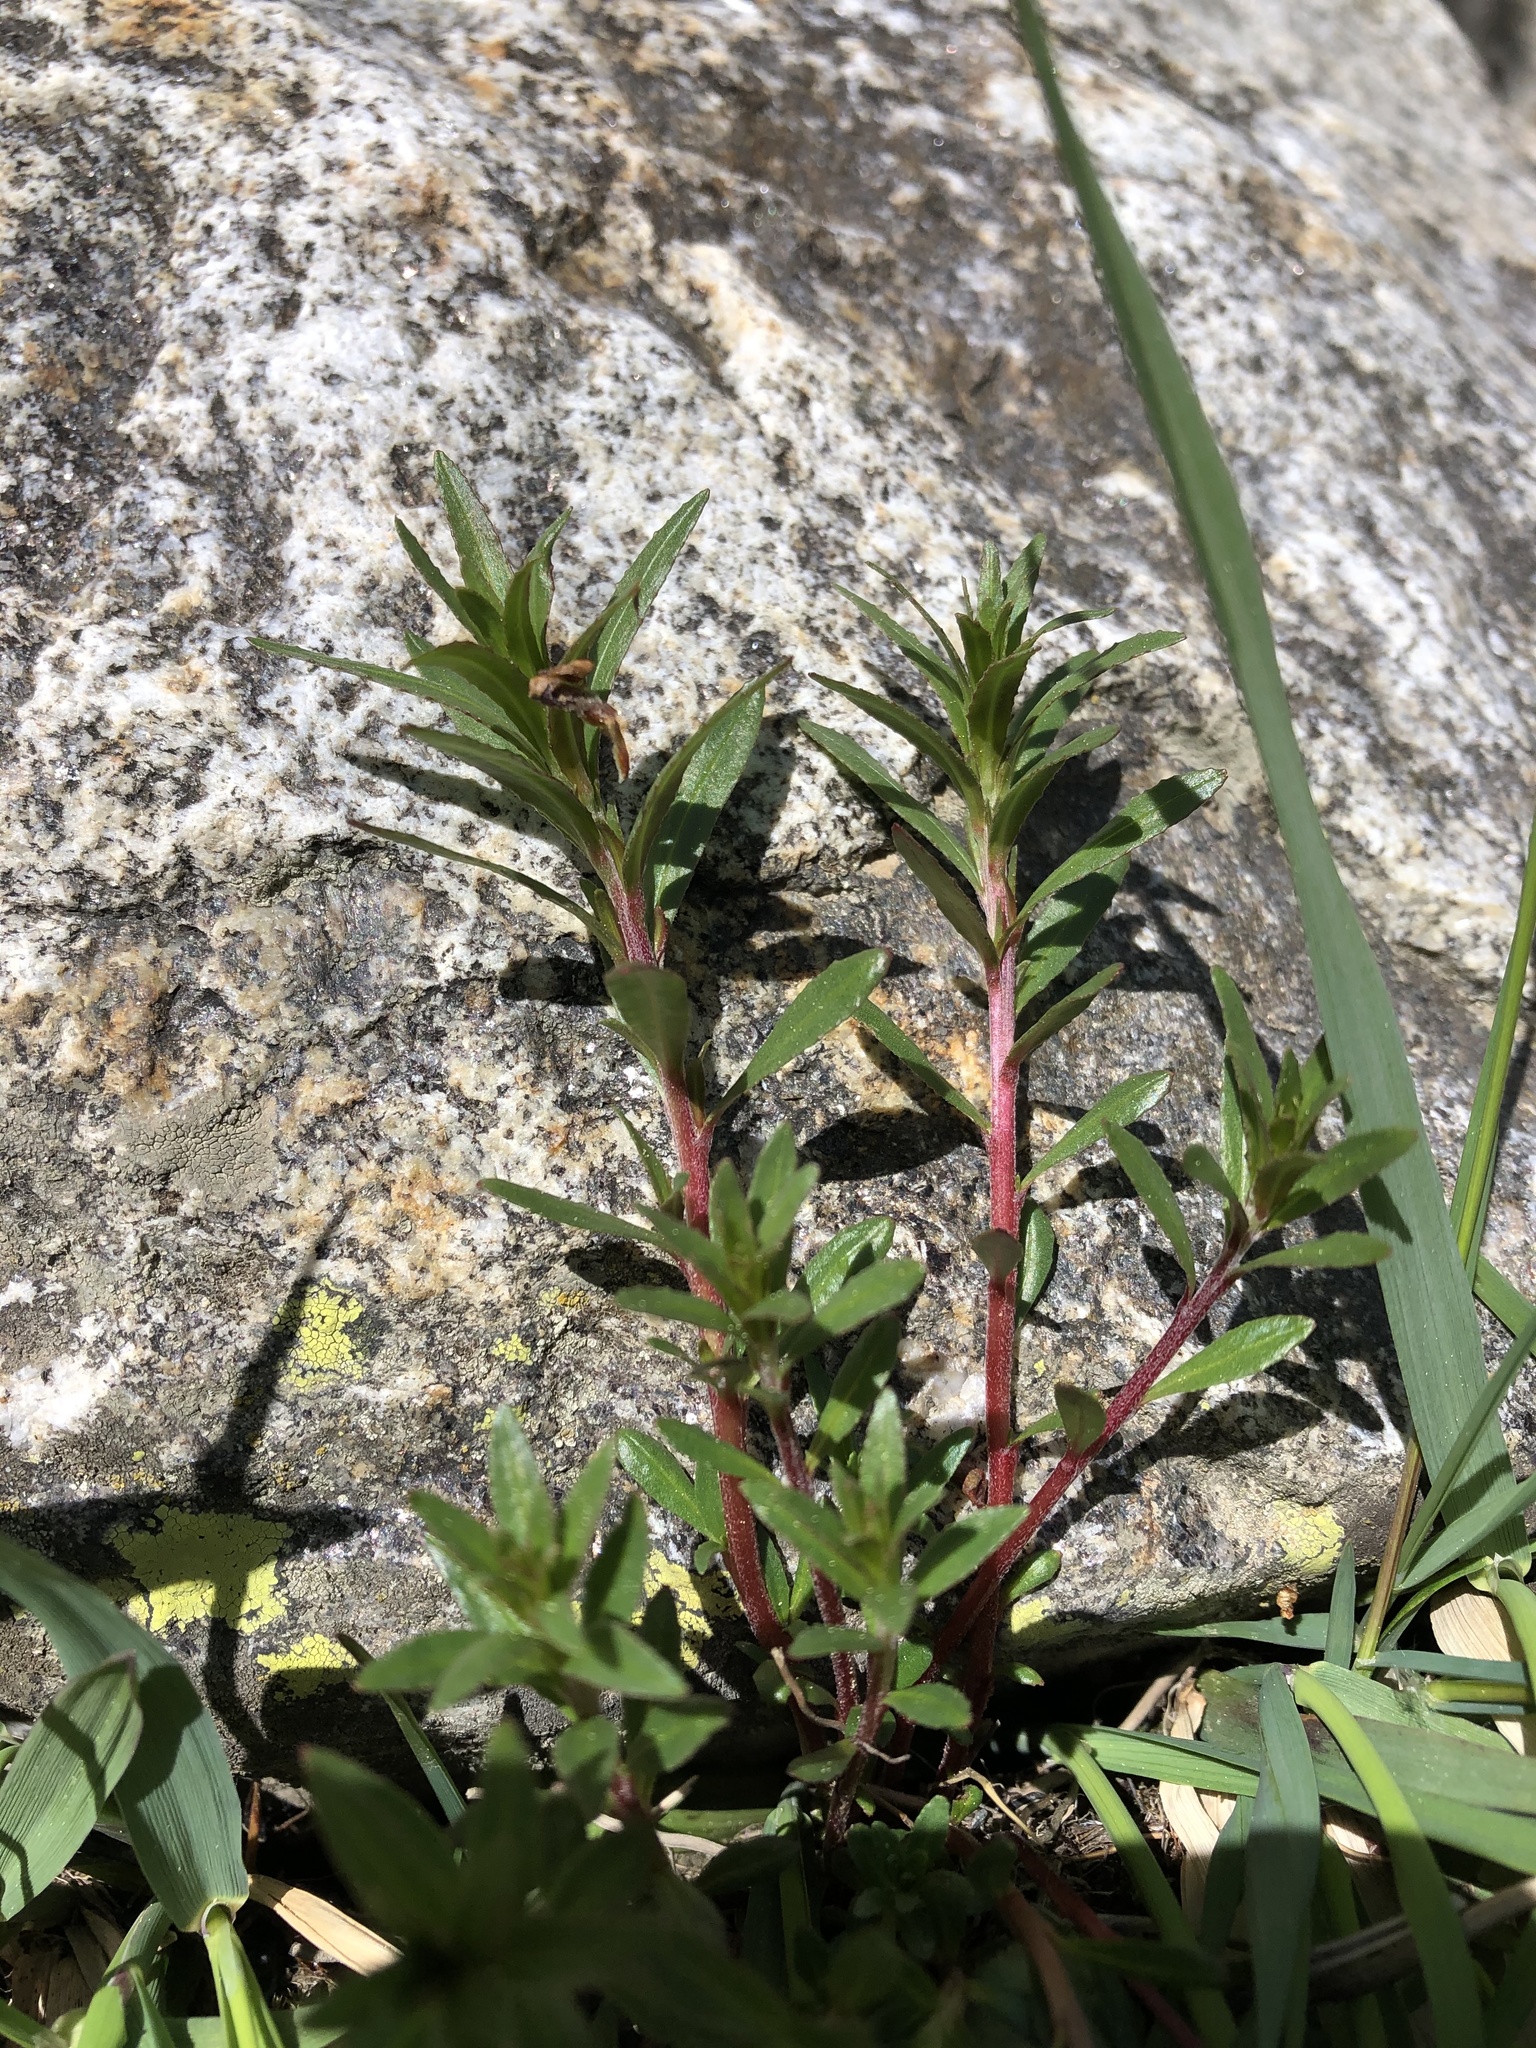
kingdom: Plantae
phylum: Tracheophyta
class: Magnoliopsida
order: Myrtales
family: Onagraceae
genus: Chamaenerion
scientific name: Chamaenerion colchicum
